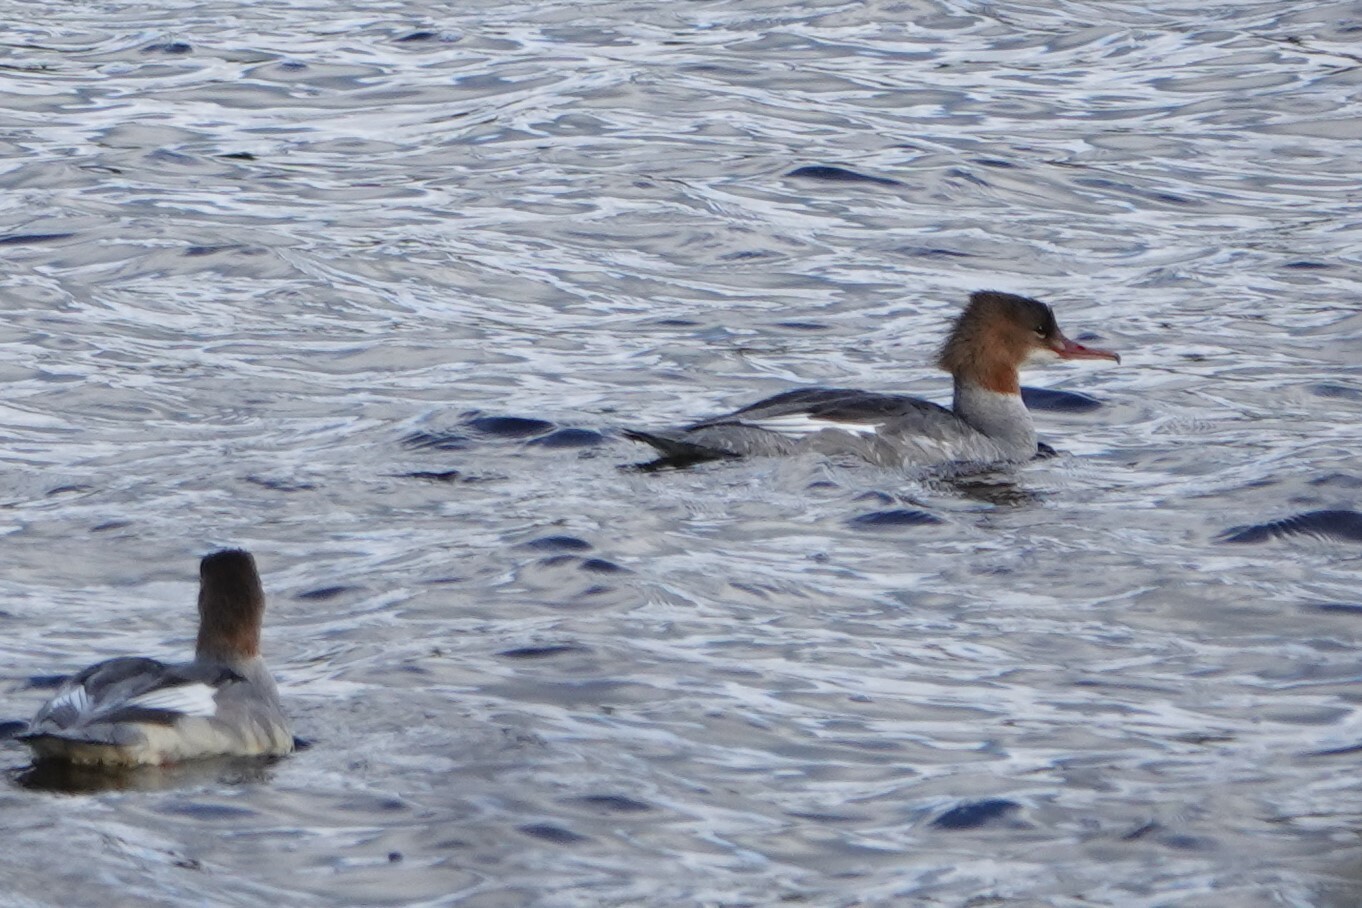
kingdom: Animalia
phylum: Chordata
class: Aves
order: Anseriformes
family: Anatidae
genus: Mergus
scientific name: Mergus merganser
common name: Common merganser
